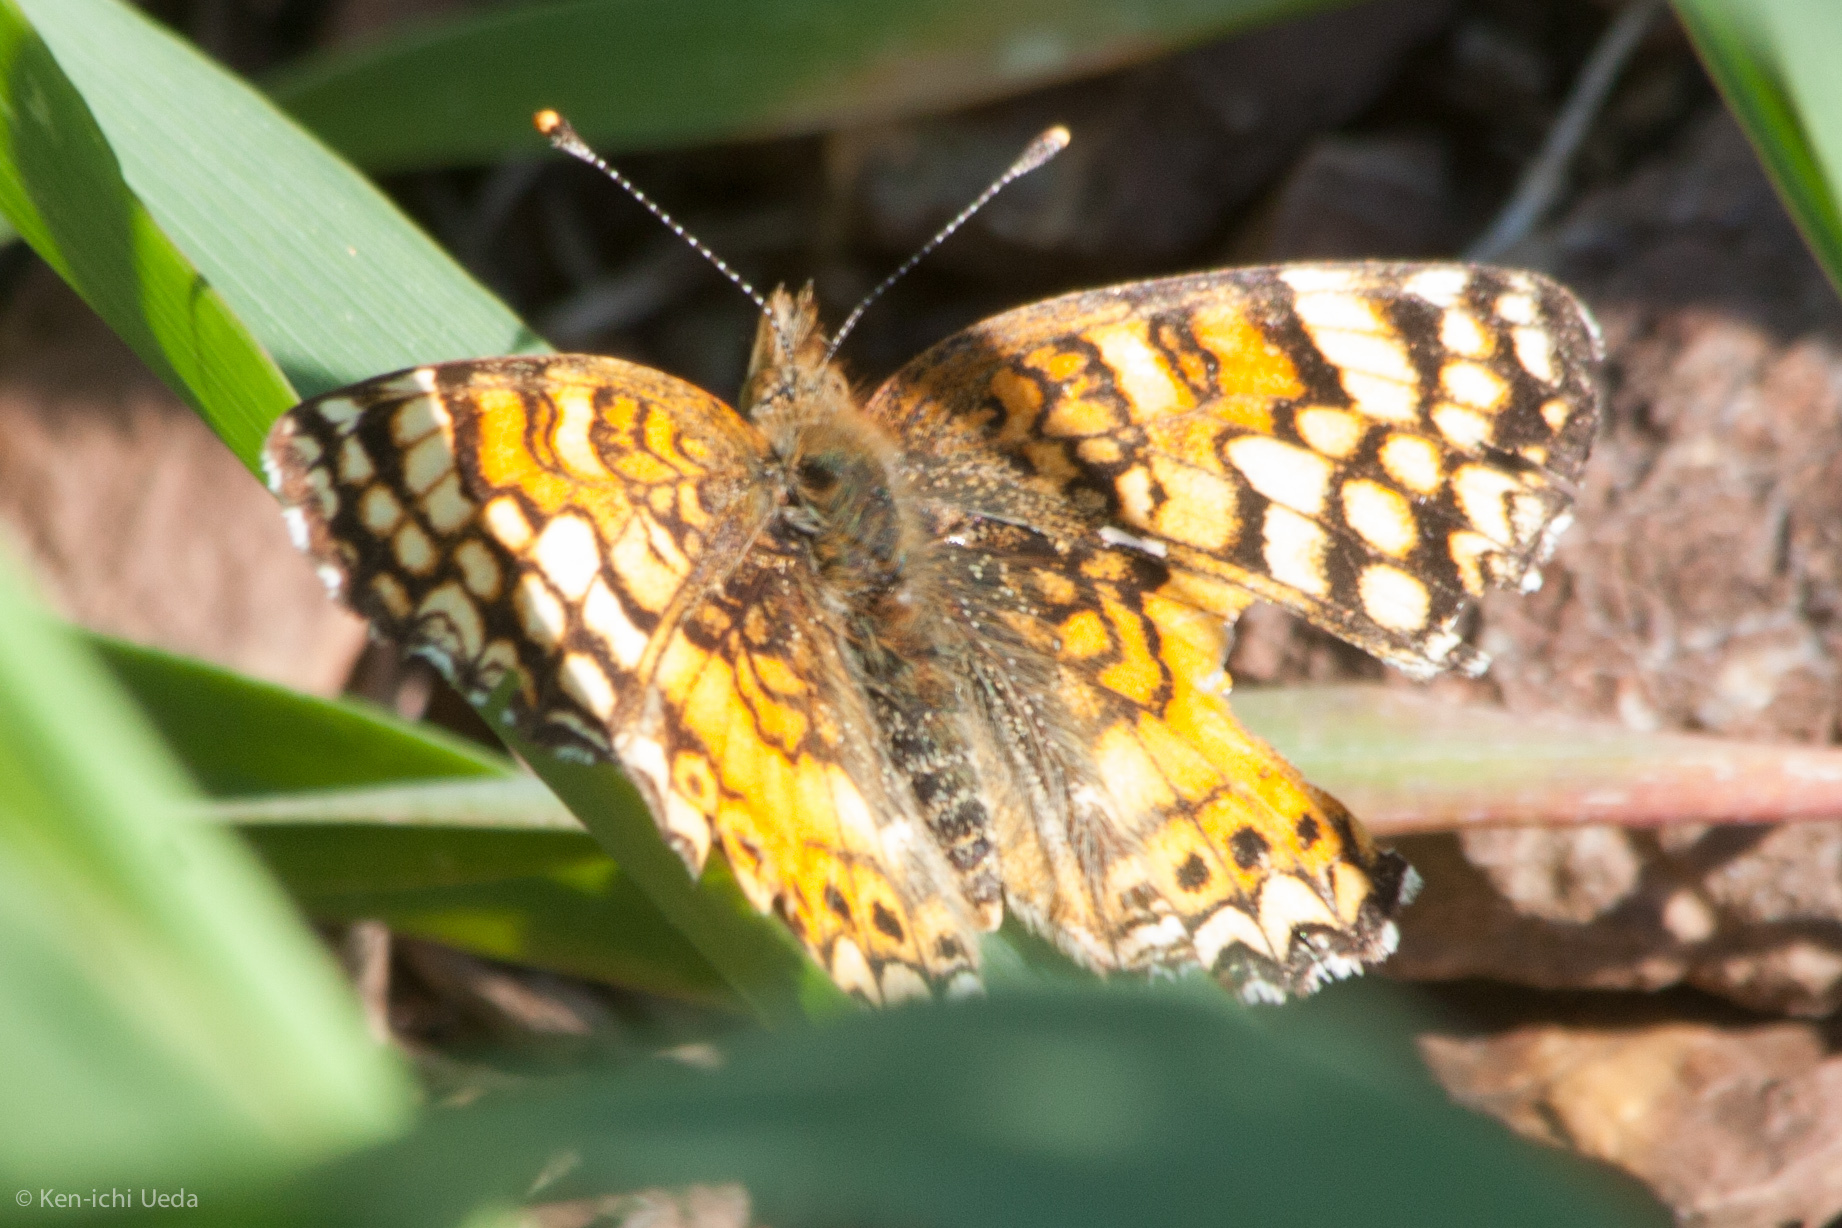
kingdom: Animalia
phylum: Arthropoda
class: Insecta
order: Lepidoptera
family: Nymphalidae
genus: Eresia
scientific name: Eresia aveyrona
